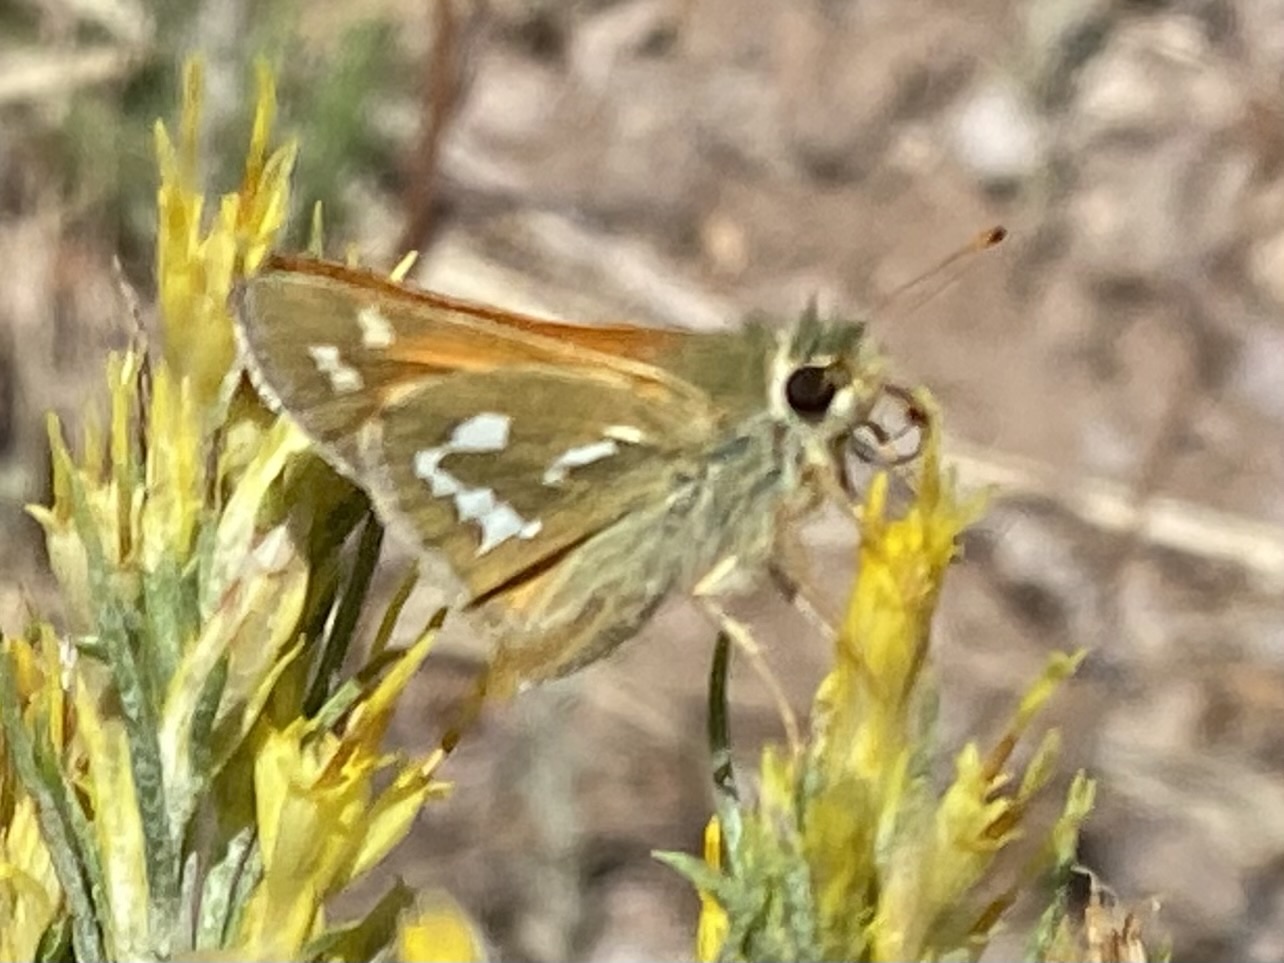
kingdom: Animalia
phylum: Arthropoda
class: Insecta
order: Lepidoptera
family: Hesperiidae
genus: Hesperia
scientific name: Hesperia comma
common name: Common branded skipper
